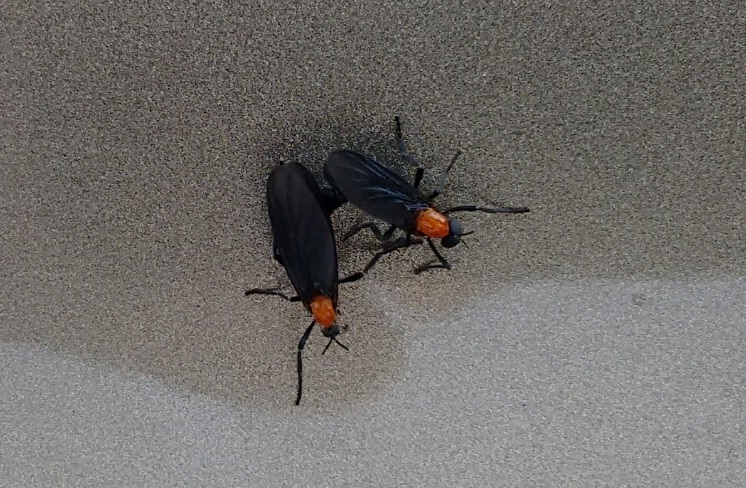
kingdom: Animalia
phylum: Arthropoda
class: Insecta
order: Diptera
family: Bibionidae
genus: Plecia
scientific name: Plecia nearctica
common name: March fly
